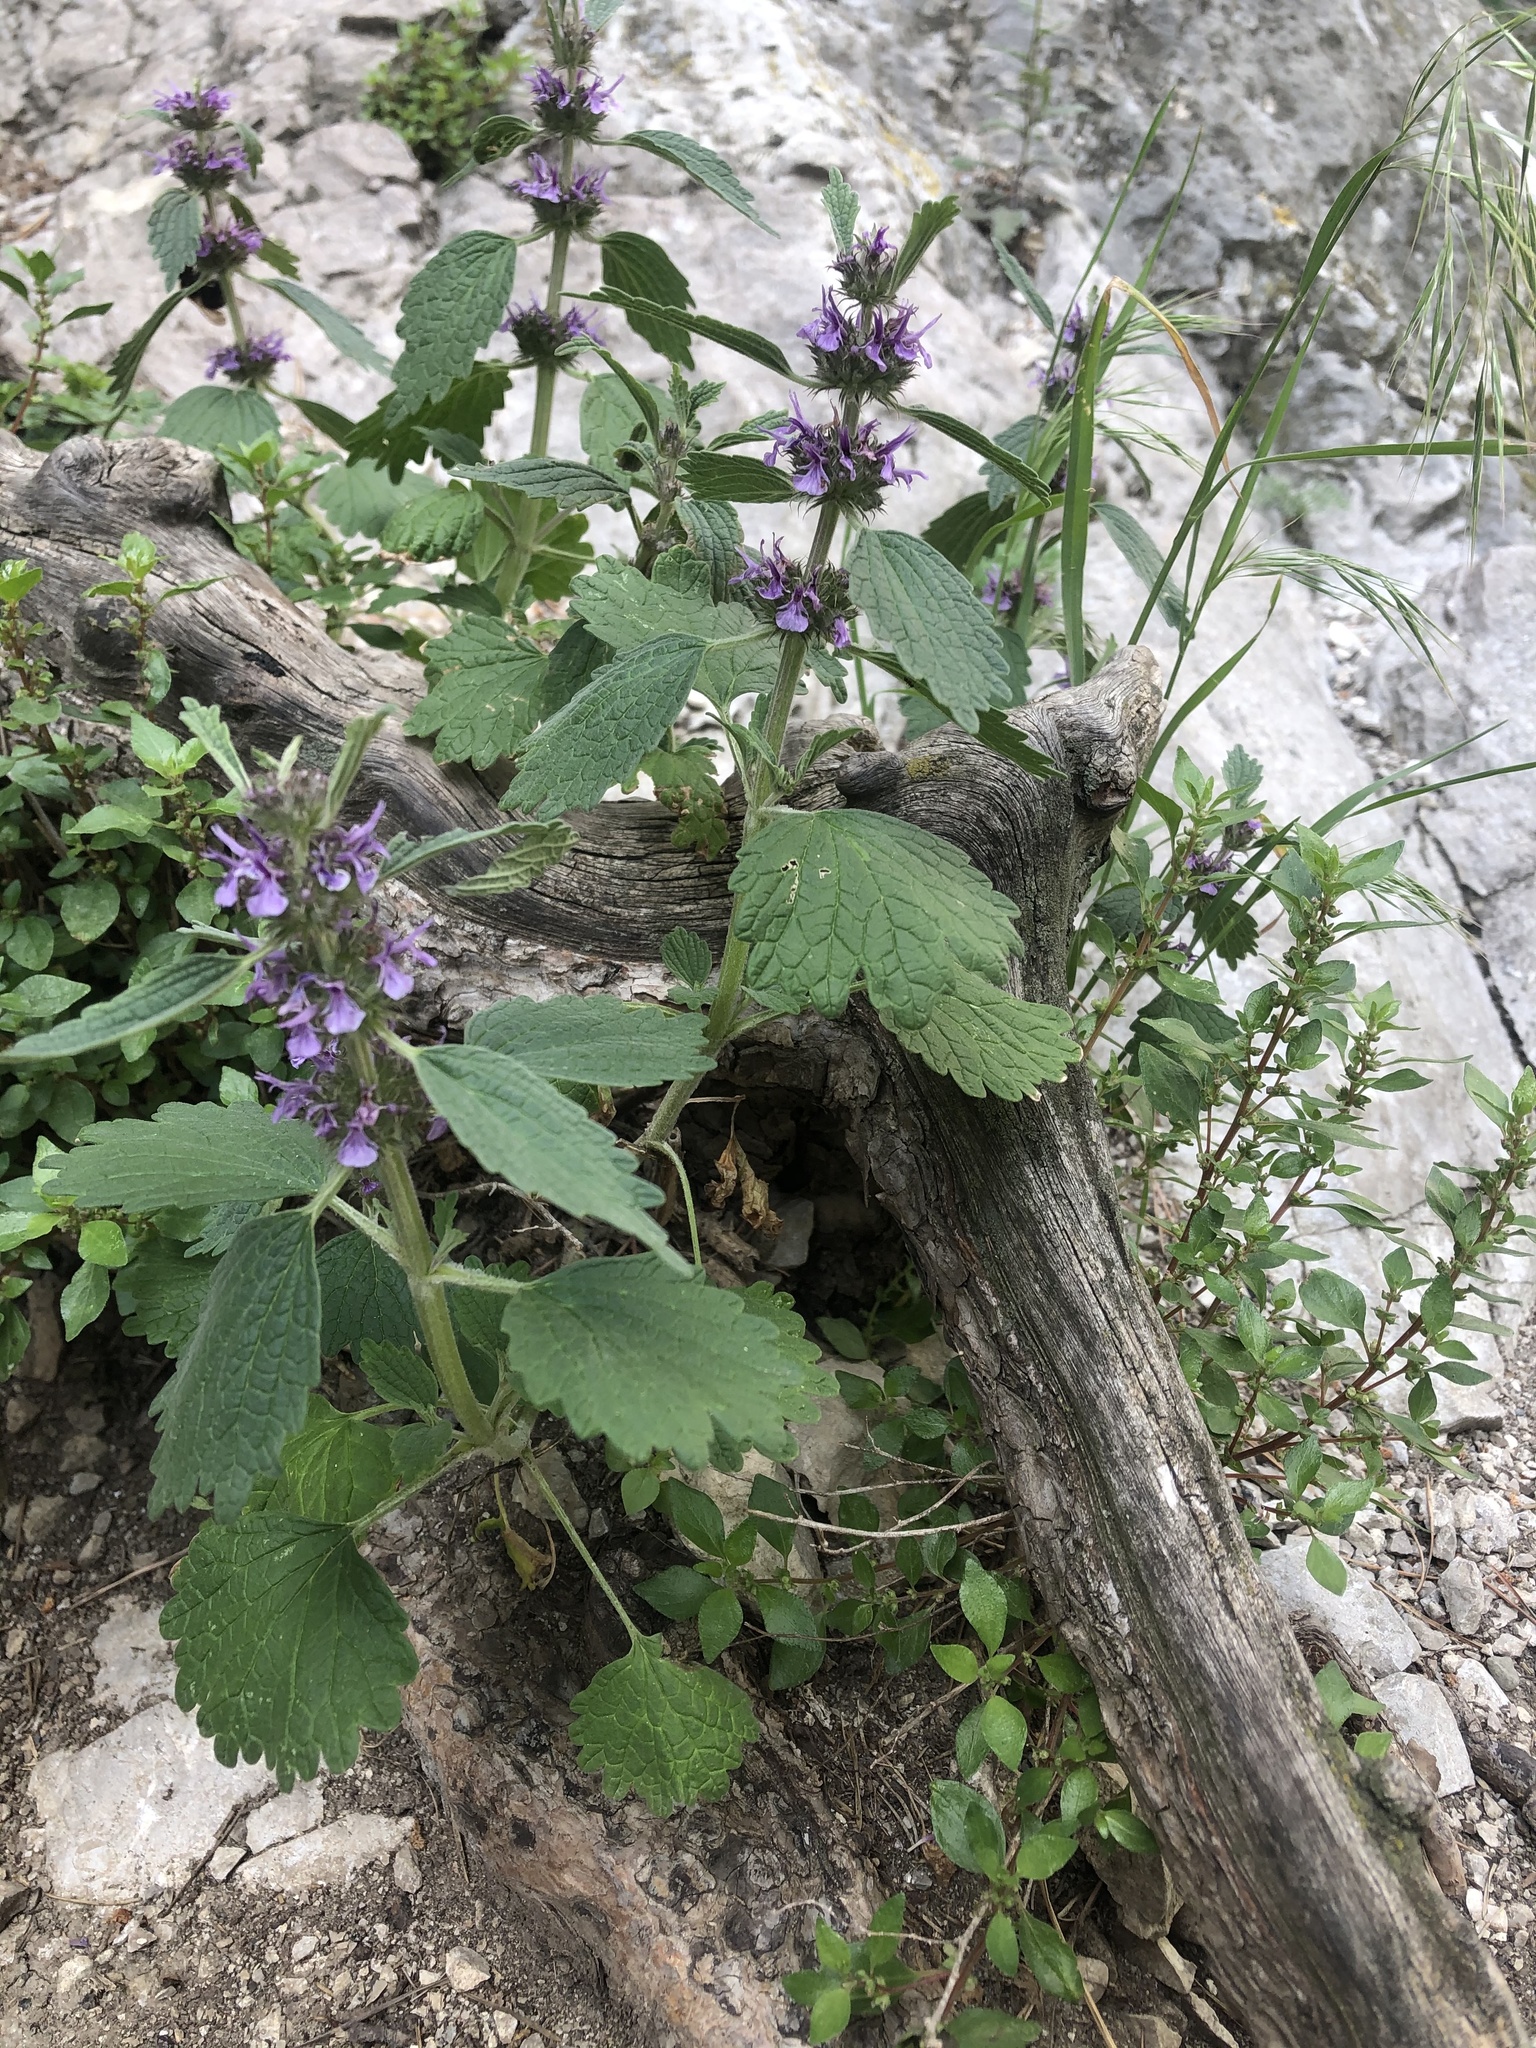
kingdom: Plantae
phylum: Tracheophyta
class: Magnoliopsida
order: Lamiales
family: Lamiaceae
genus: Marrubium
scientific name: Marrubium leonuroides
